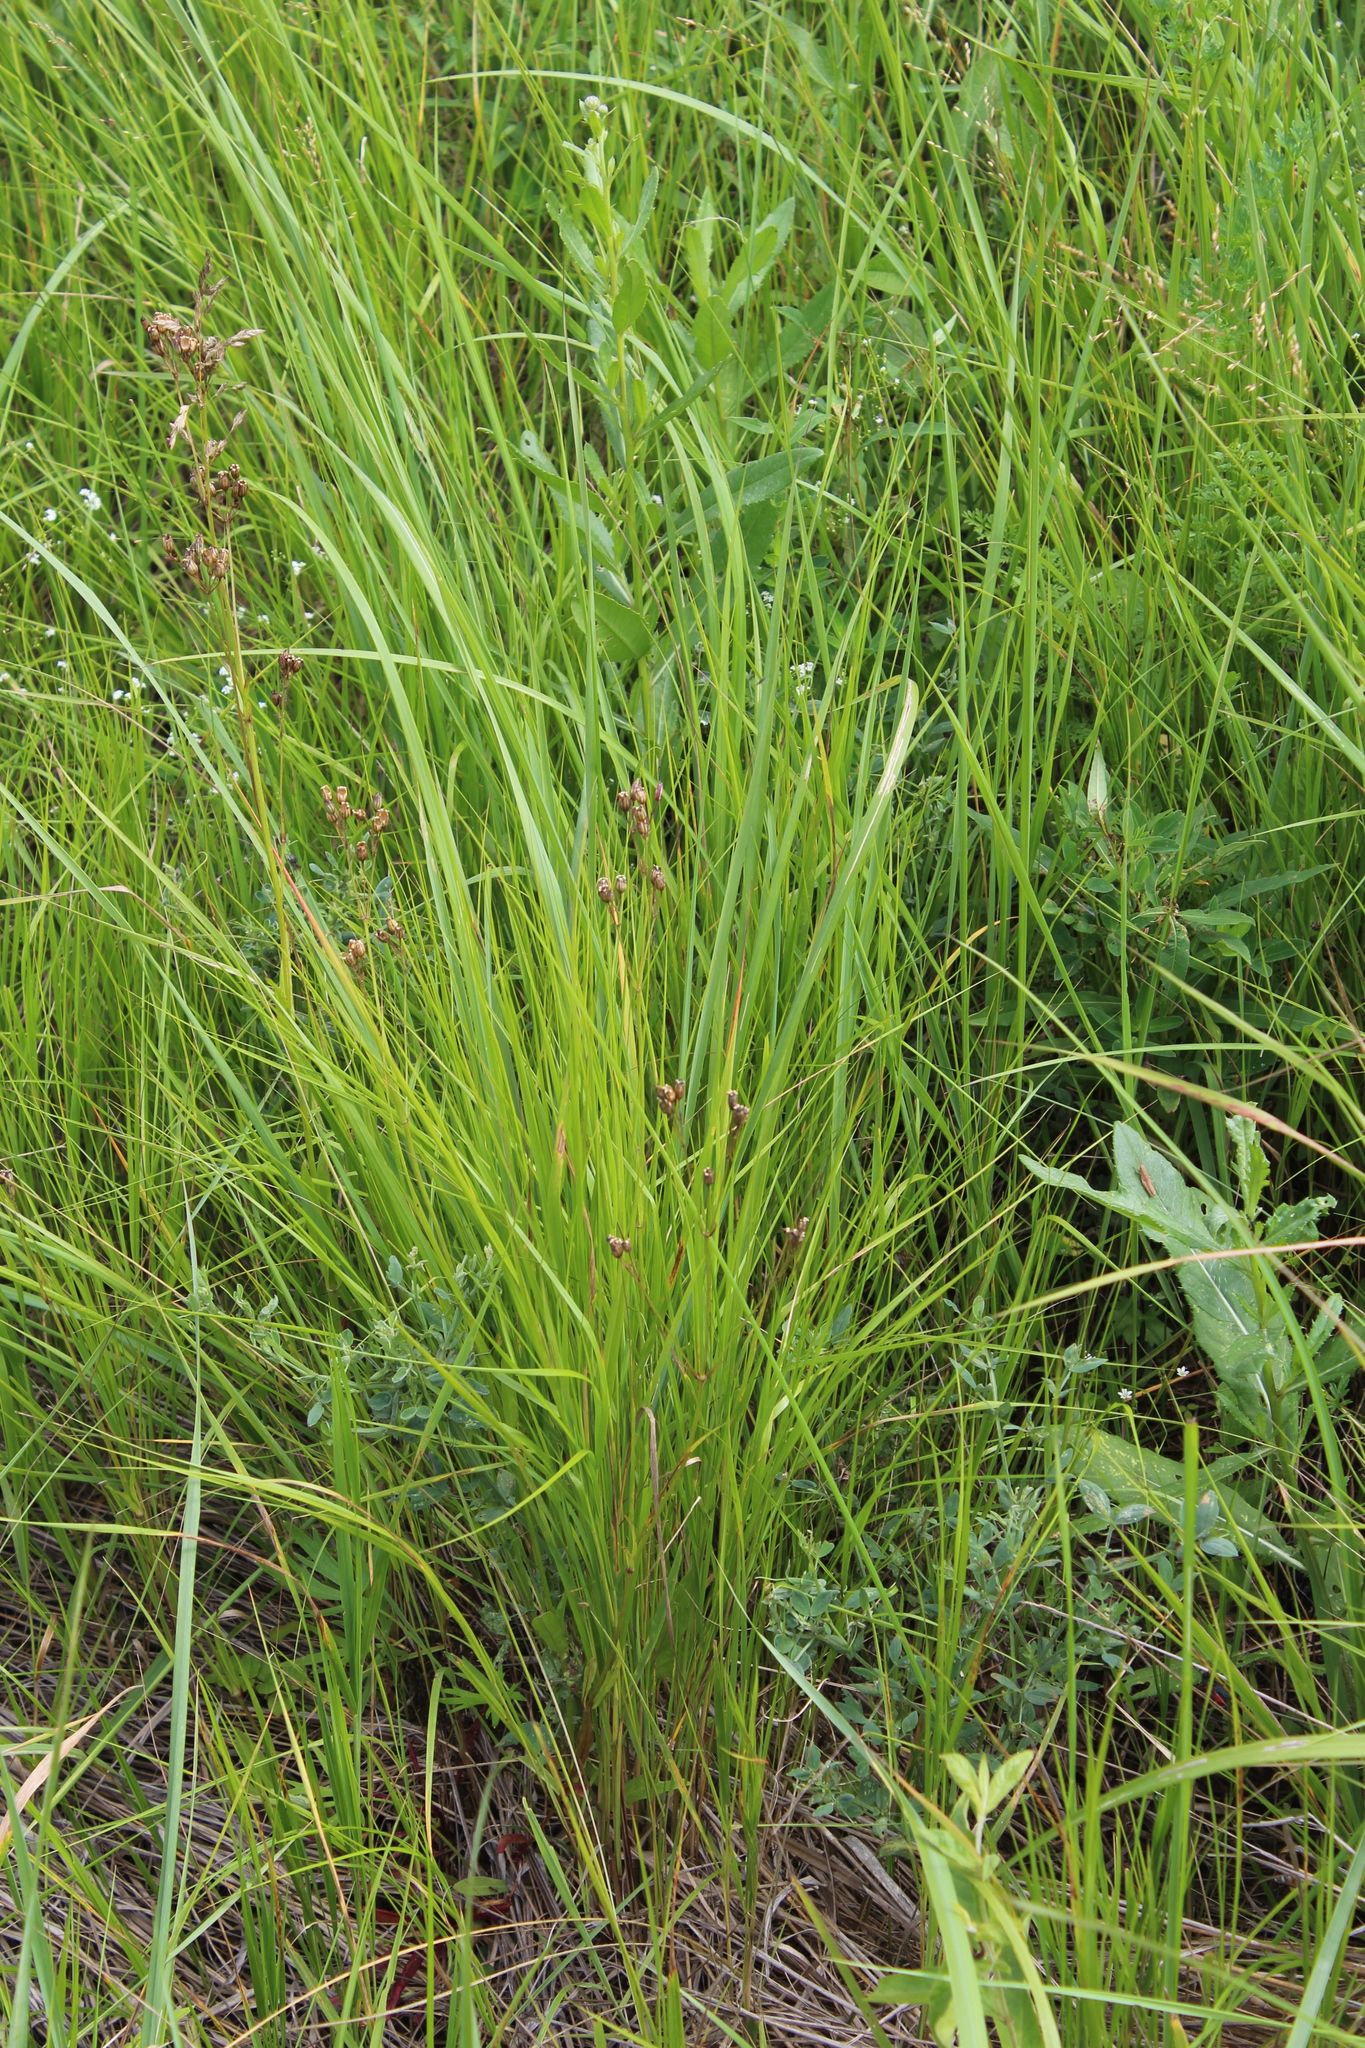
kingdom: Plantae
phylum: Tracheophyta
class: Magnoliopsida
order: Caryophyllales
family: Caryophyllaceae
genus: Silene
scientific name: Silene flos-cuculi
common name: Ragged-robin
